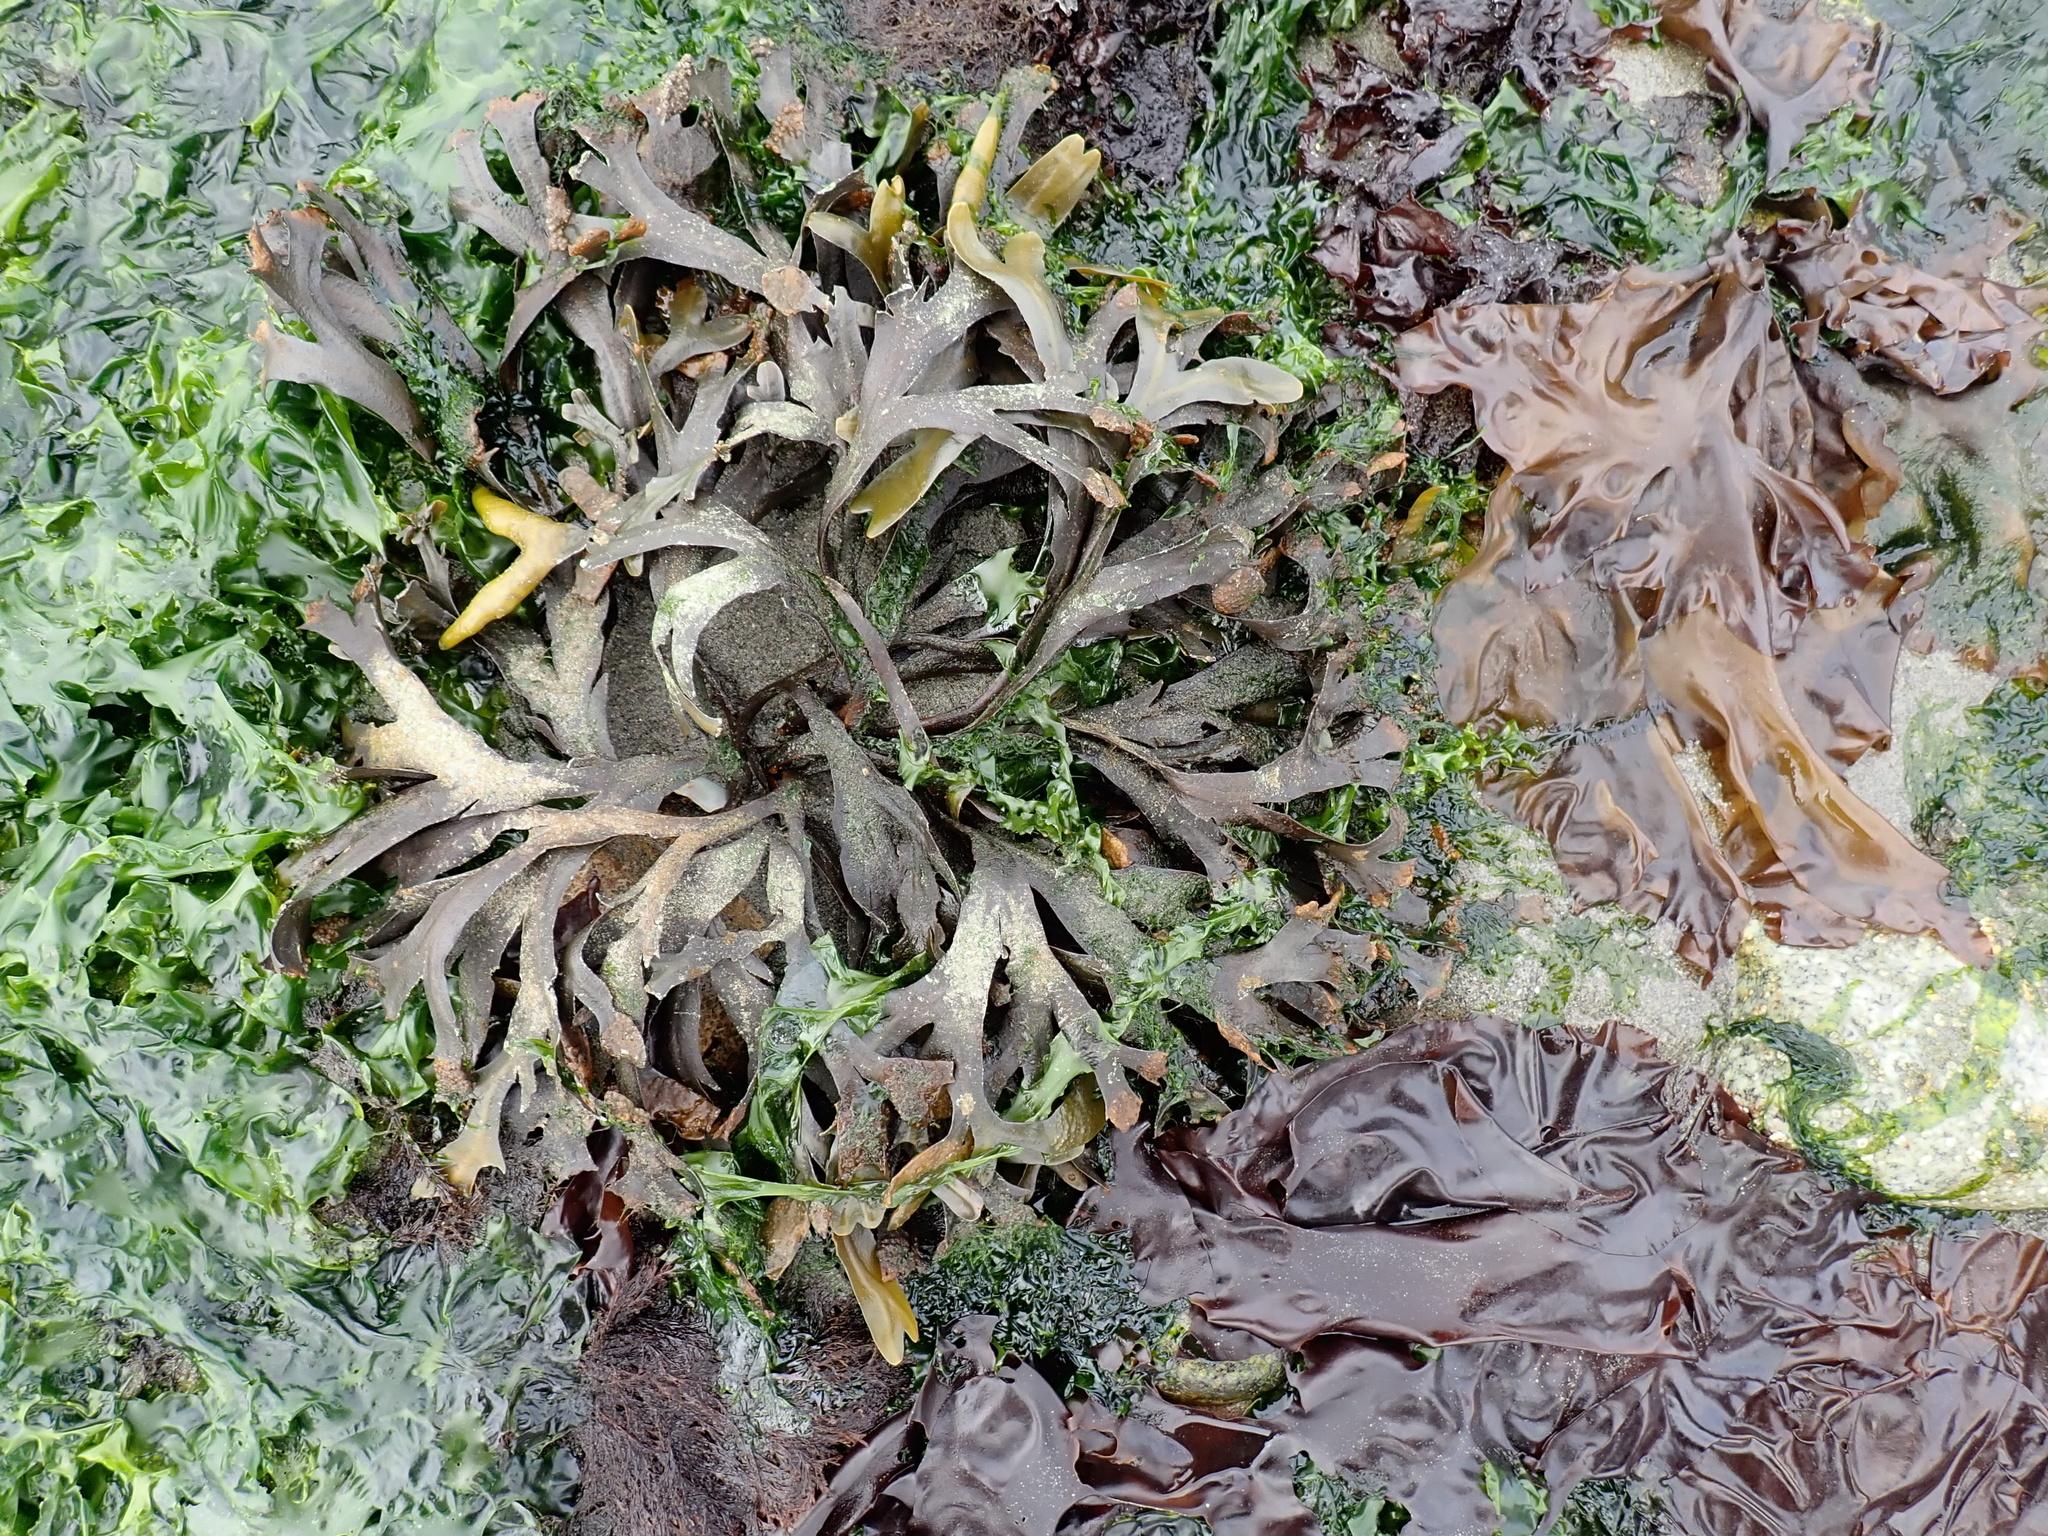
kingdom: Chromista
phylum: Ochrophyta
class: Phaeophyceae
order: Fucales
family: Fucaceae
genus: Fucus
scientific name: Fucus distichus
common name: Rockweed
